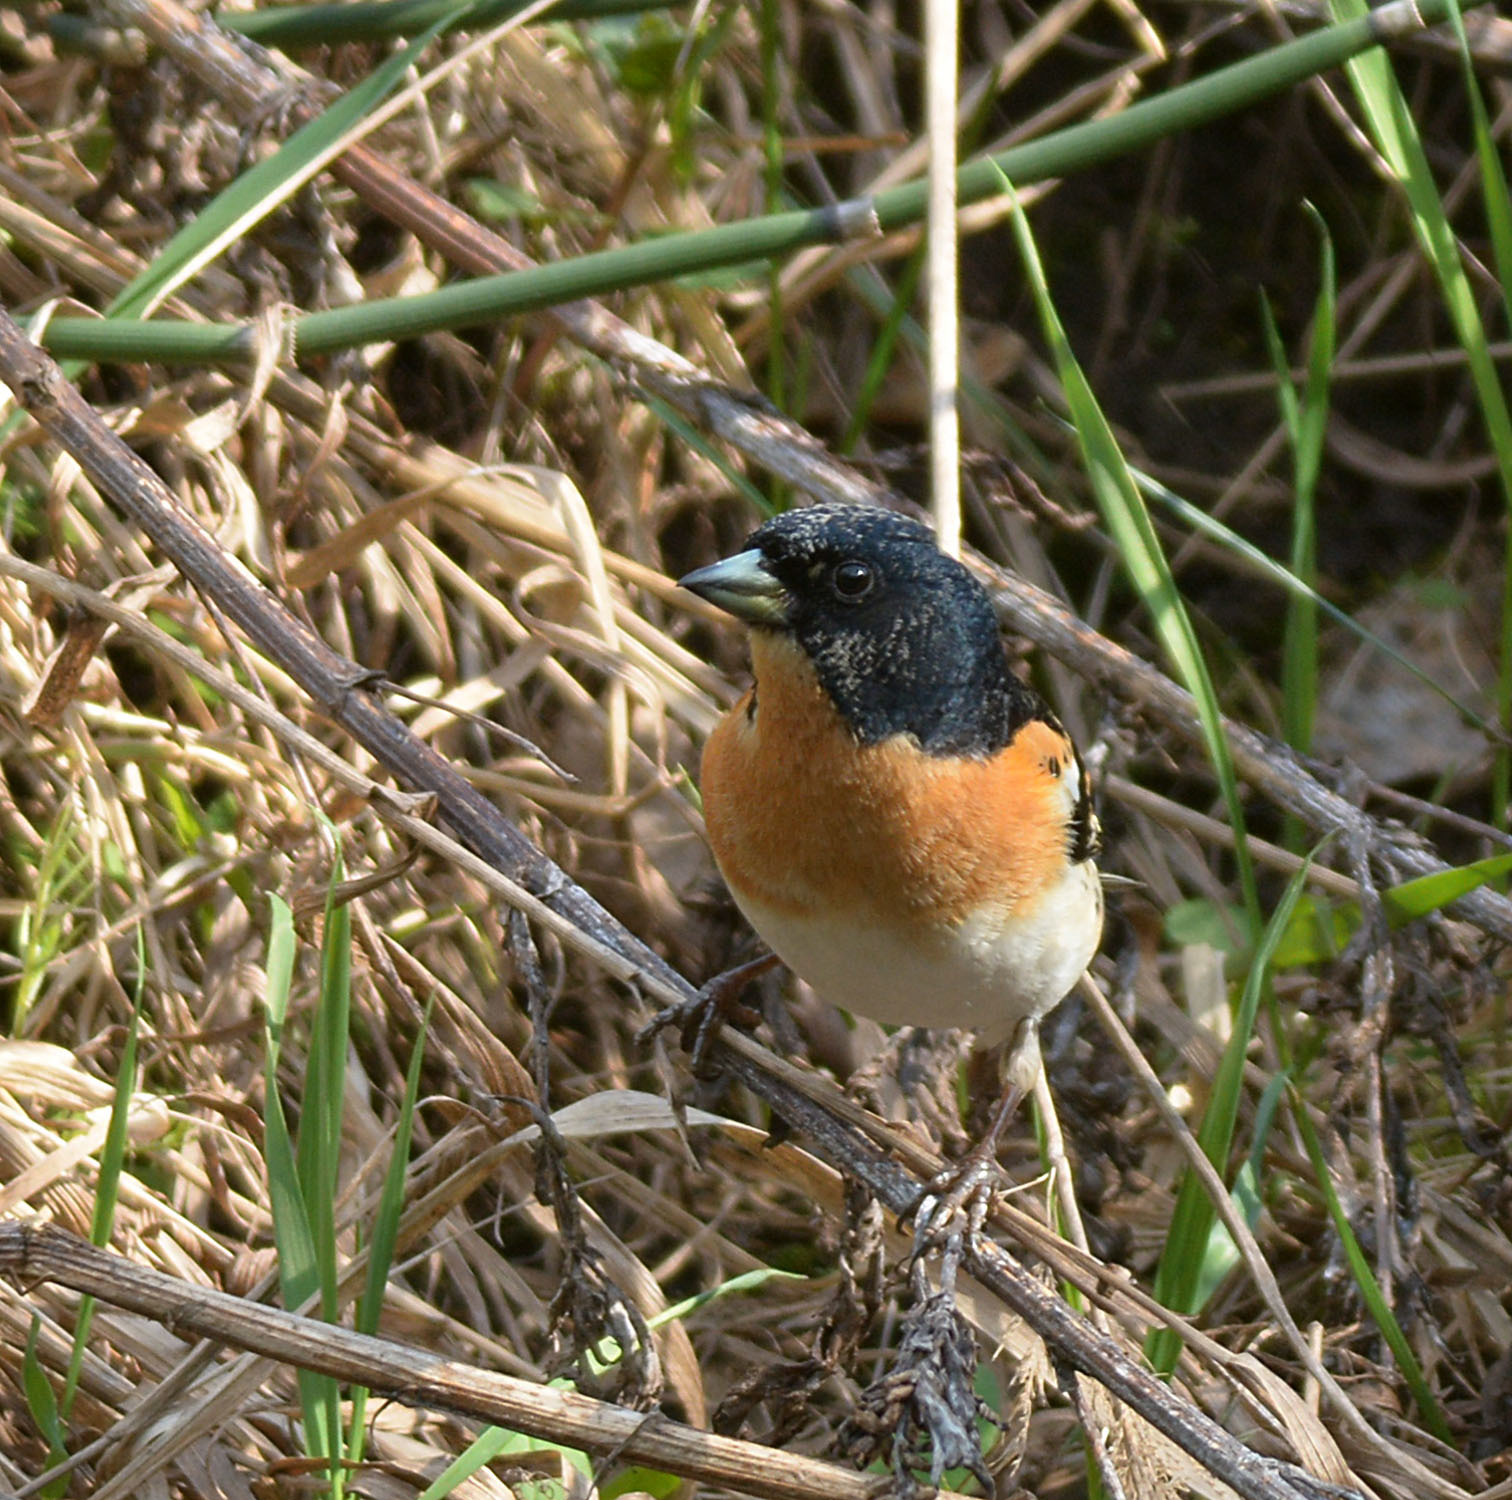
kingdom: Animalia
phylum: Chordata
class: Aves
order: Passeriformes
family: Fringillidae
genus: Fringilla
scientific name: Fringilla montifringilla
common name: Brambling
